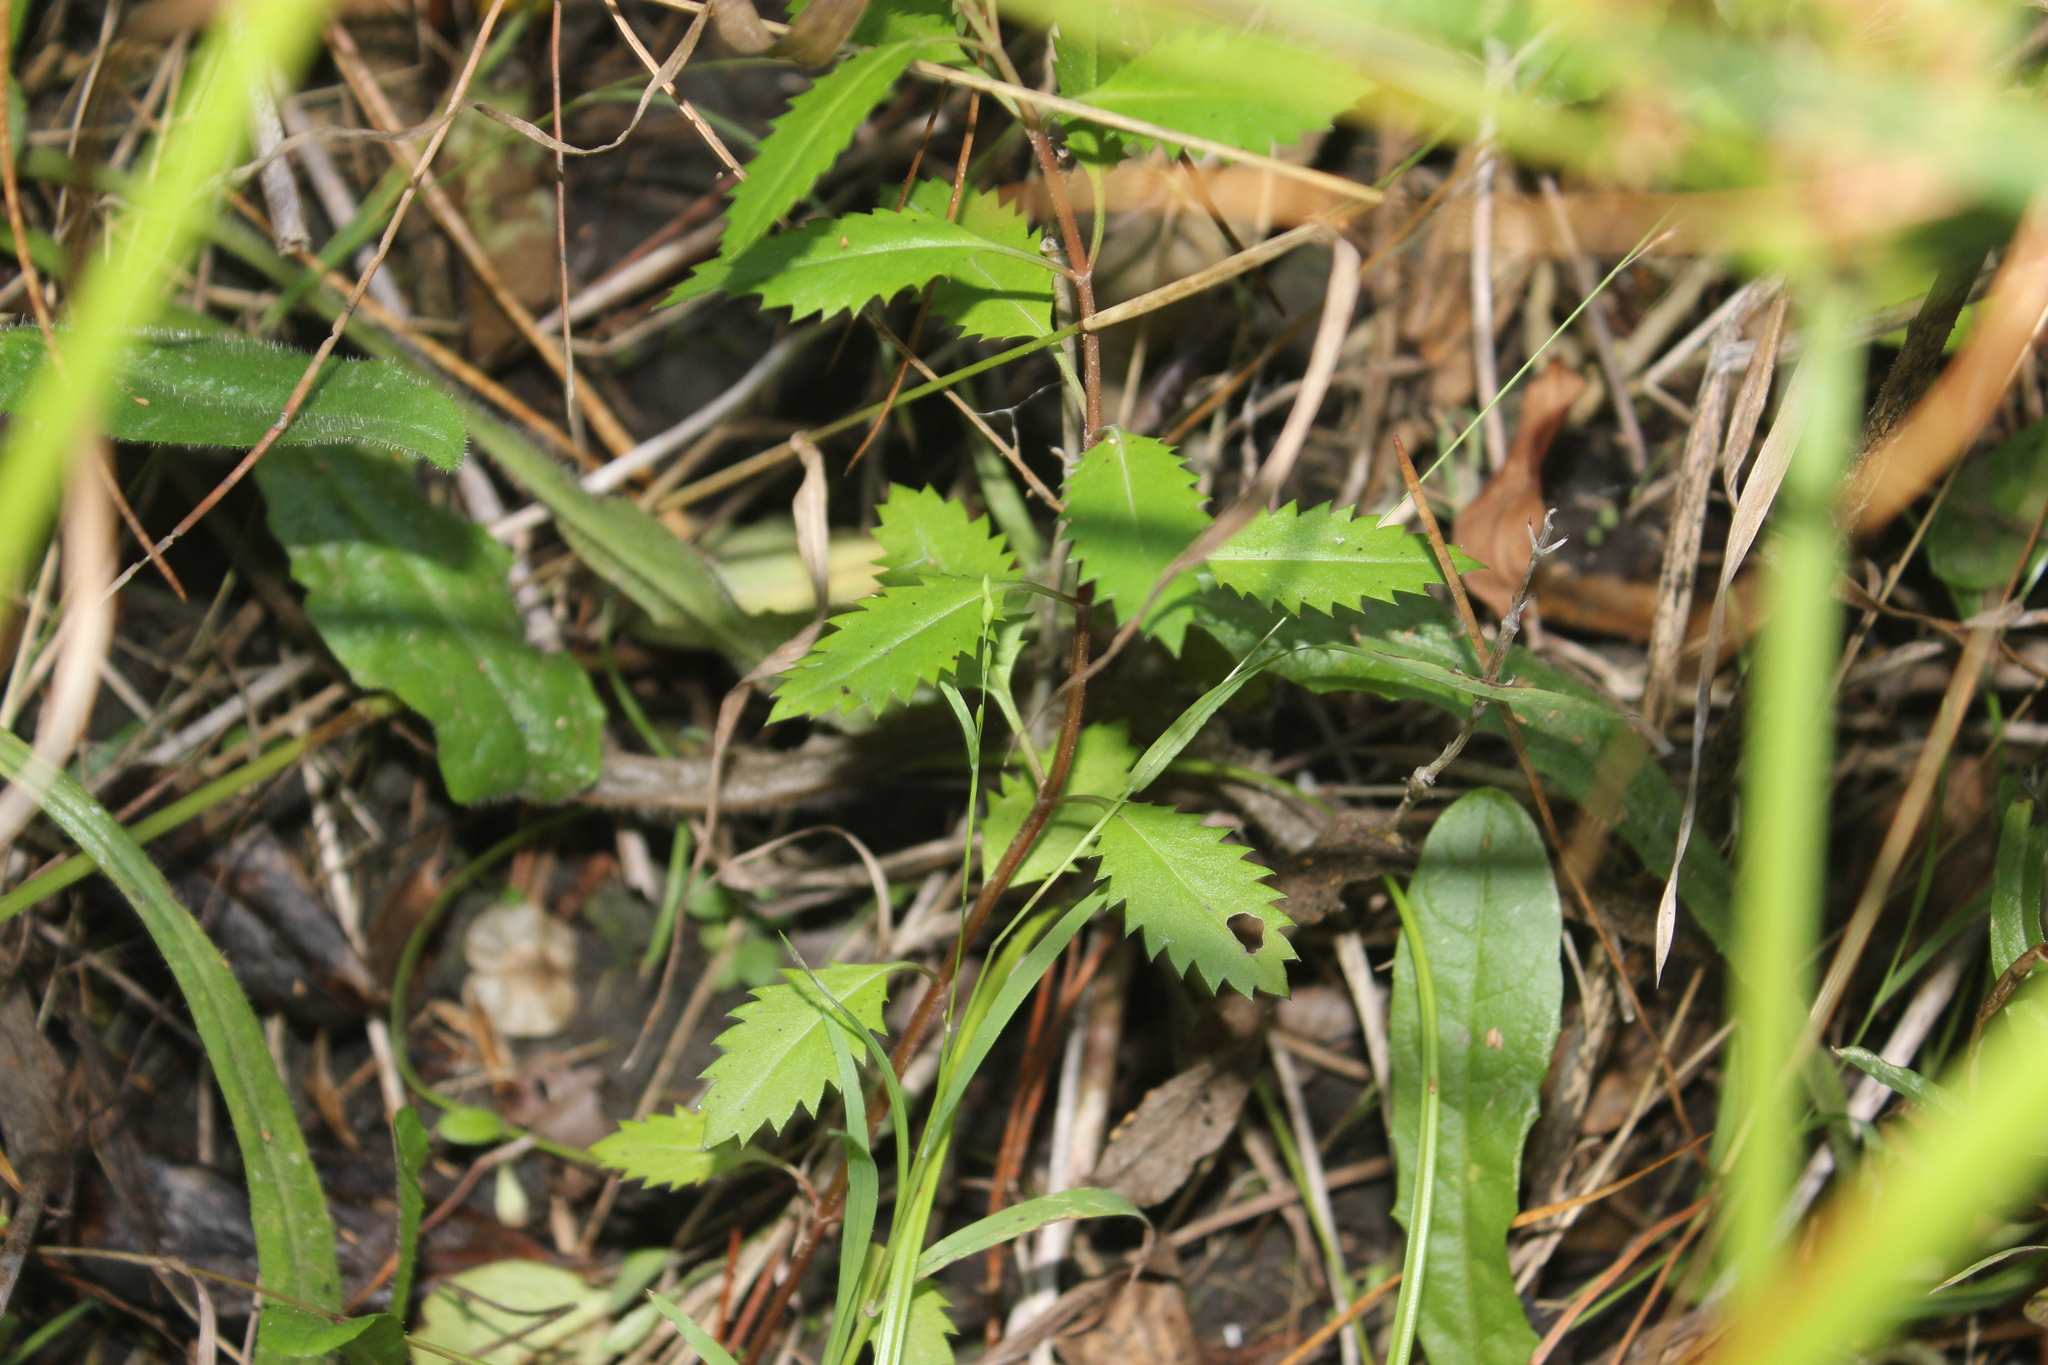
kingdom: Plantae
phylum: Tracheophyta
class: Magnoliopsida
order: Saxifragales
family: Haloragaceae
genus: Haloragis
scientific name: Haloragis erecta
